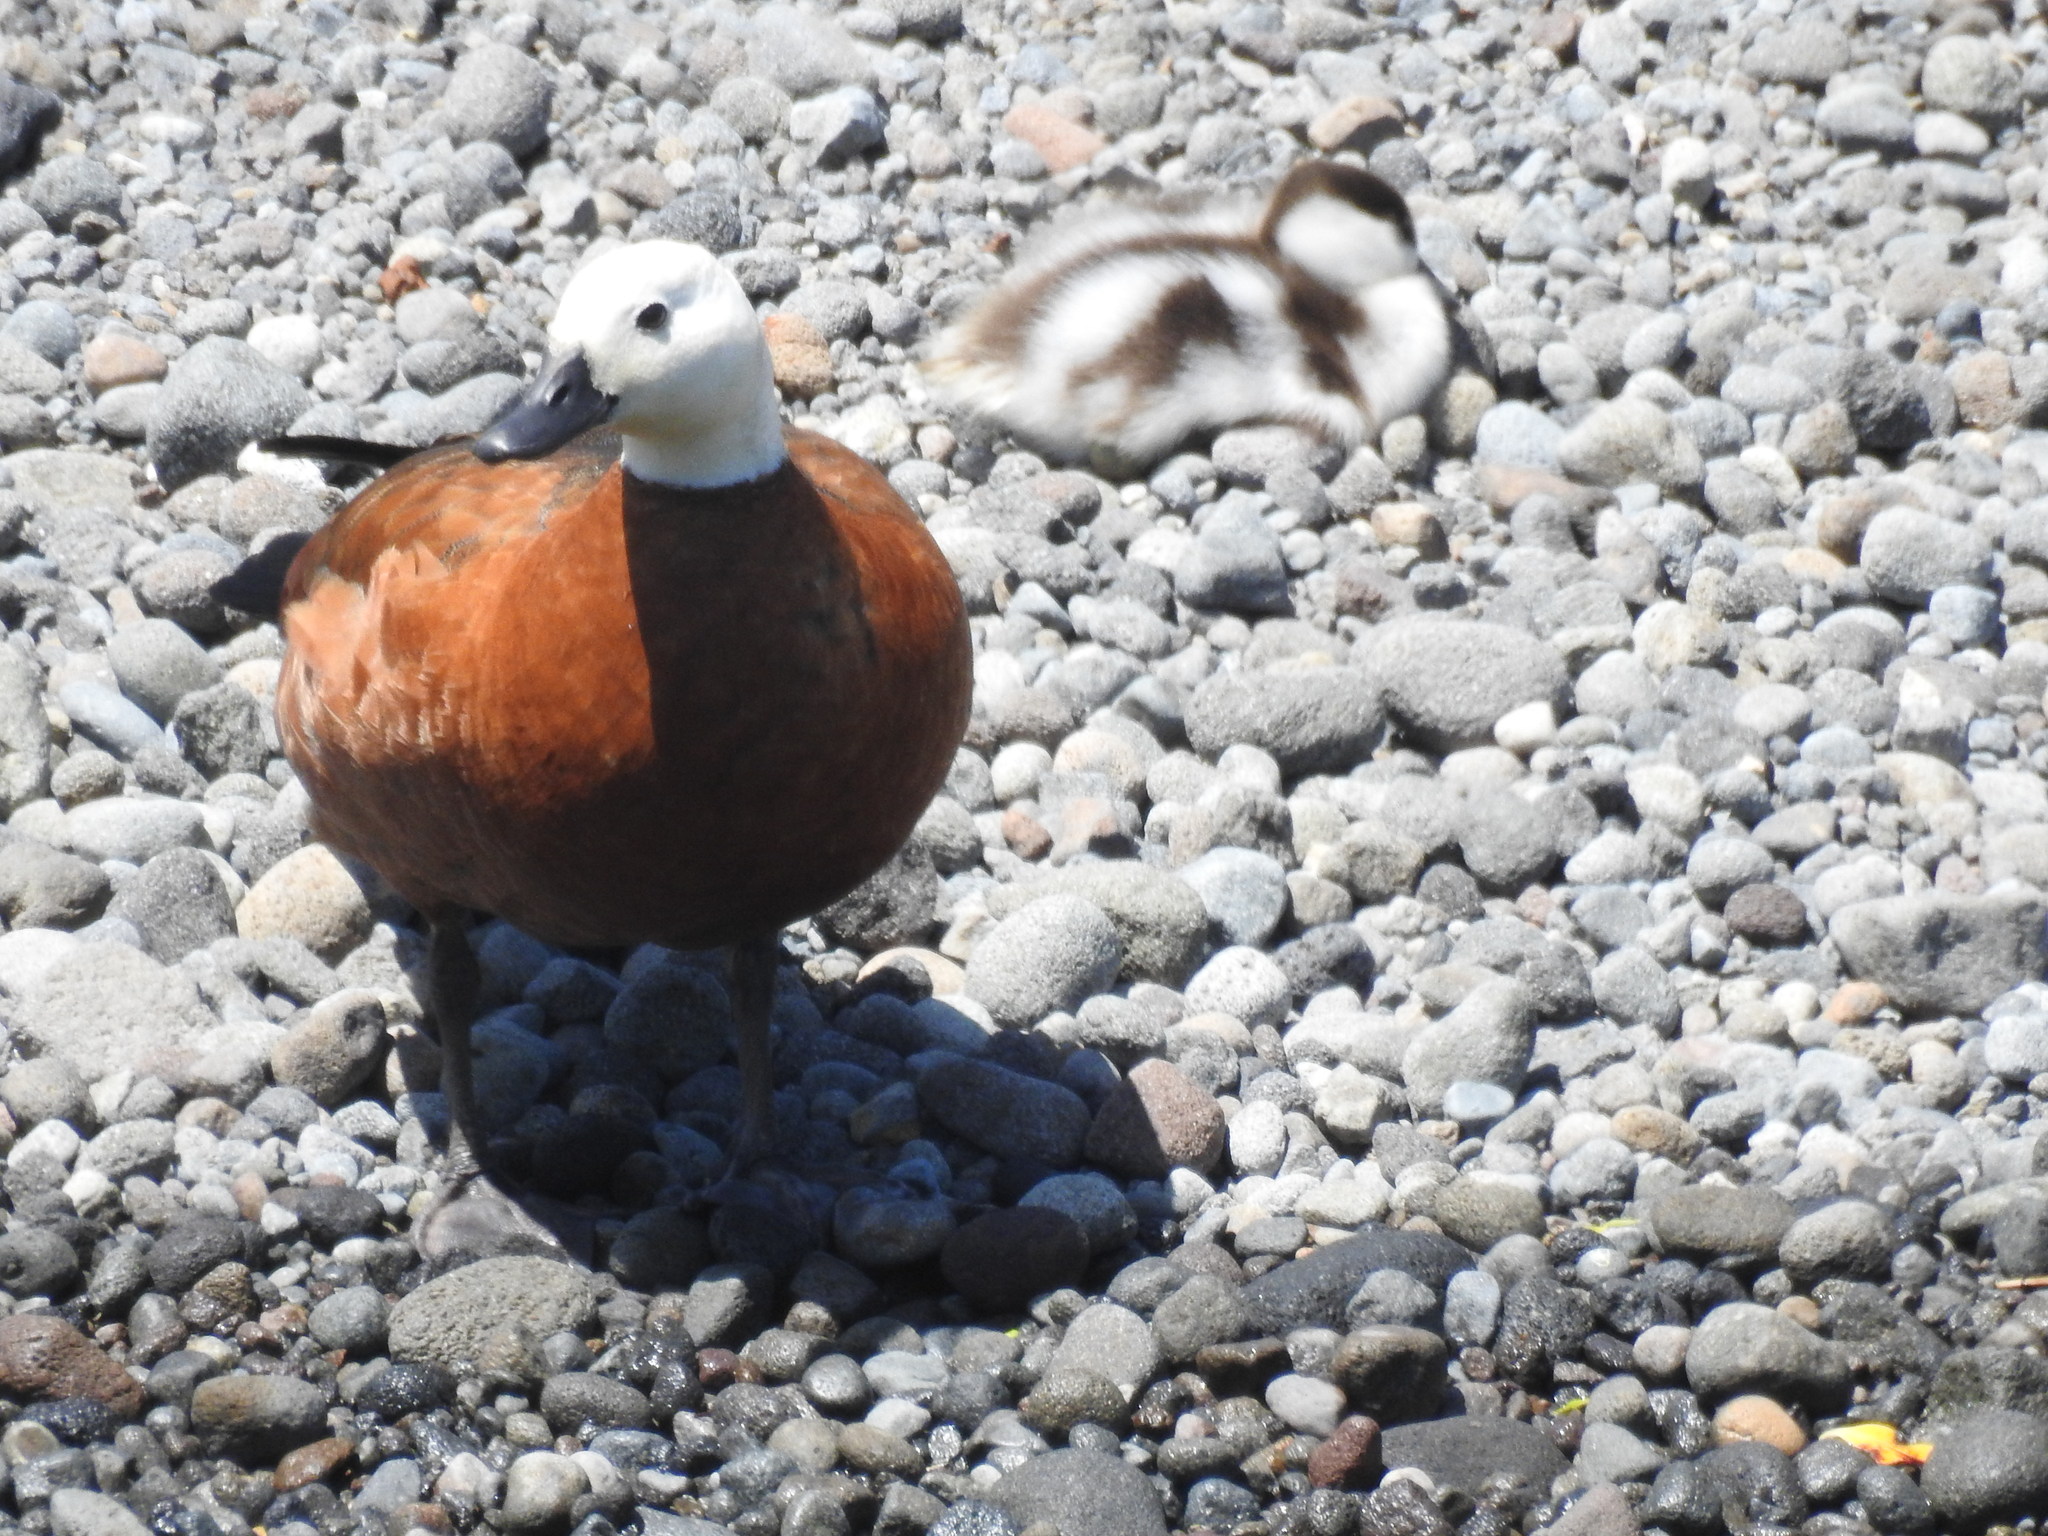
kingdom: Animalia
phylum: Chordata
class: Aves
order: Anseriformes
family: Anatidae
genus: Tadorna
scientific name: Tadorna variegata
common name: Paradise shelduck
